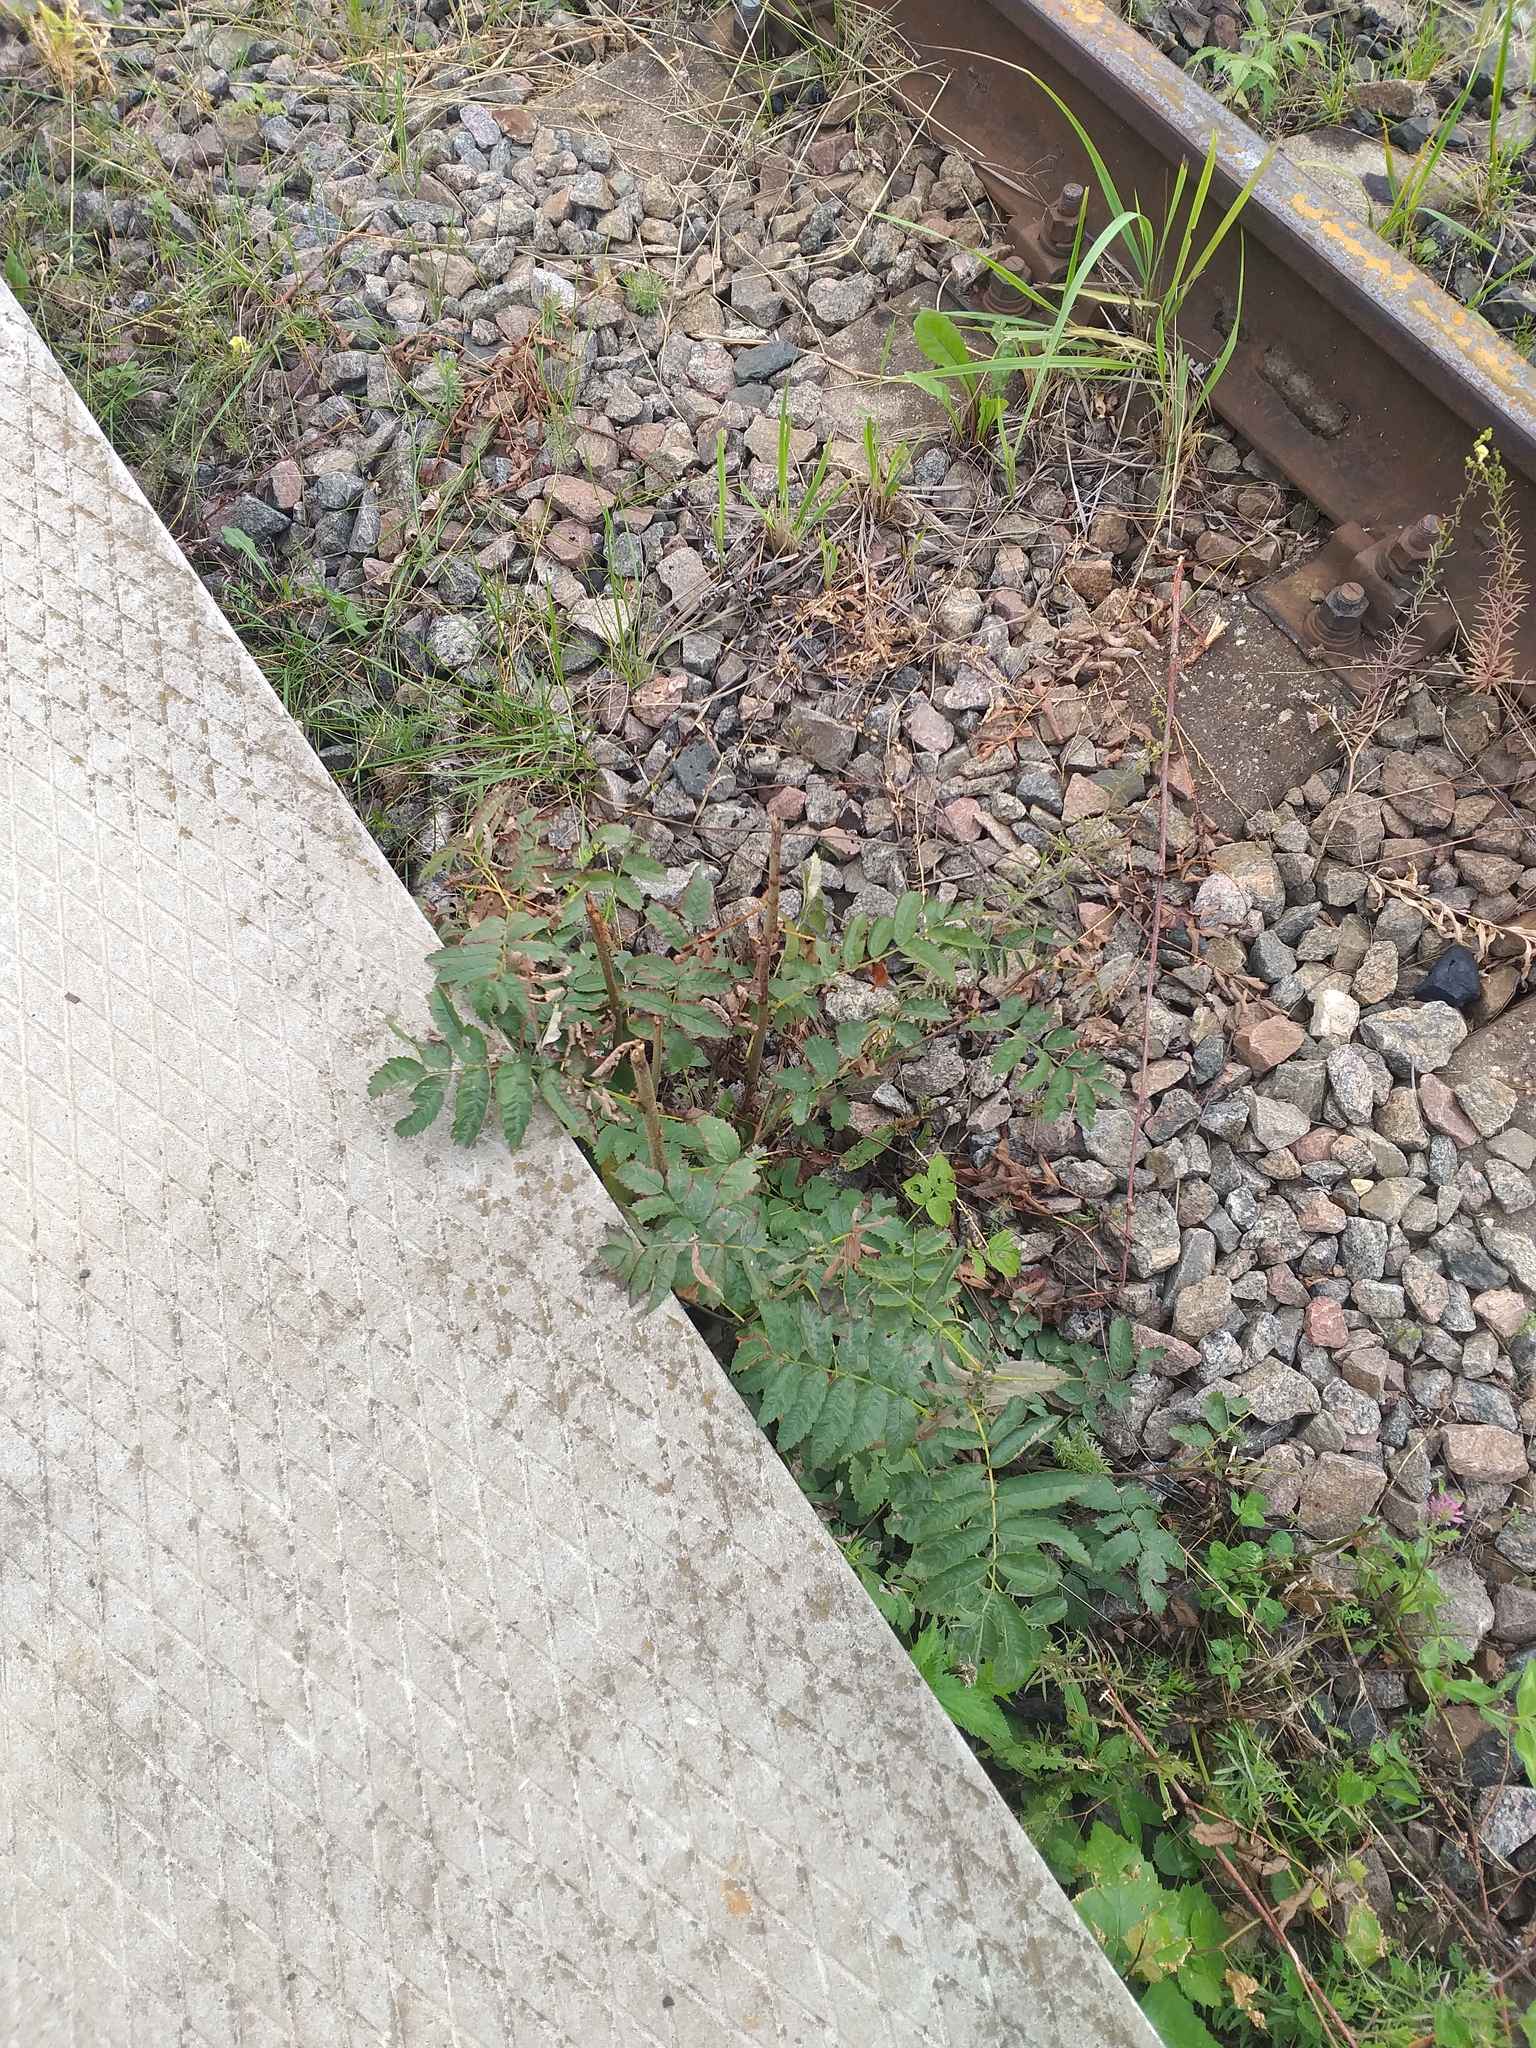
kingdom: Plantae
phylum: Tracheophyta
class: Magnoliopsida
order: Rosales
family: Rosaceae
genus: Sorbus
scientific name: Sorbus aucuparia
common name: Rowan
